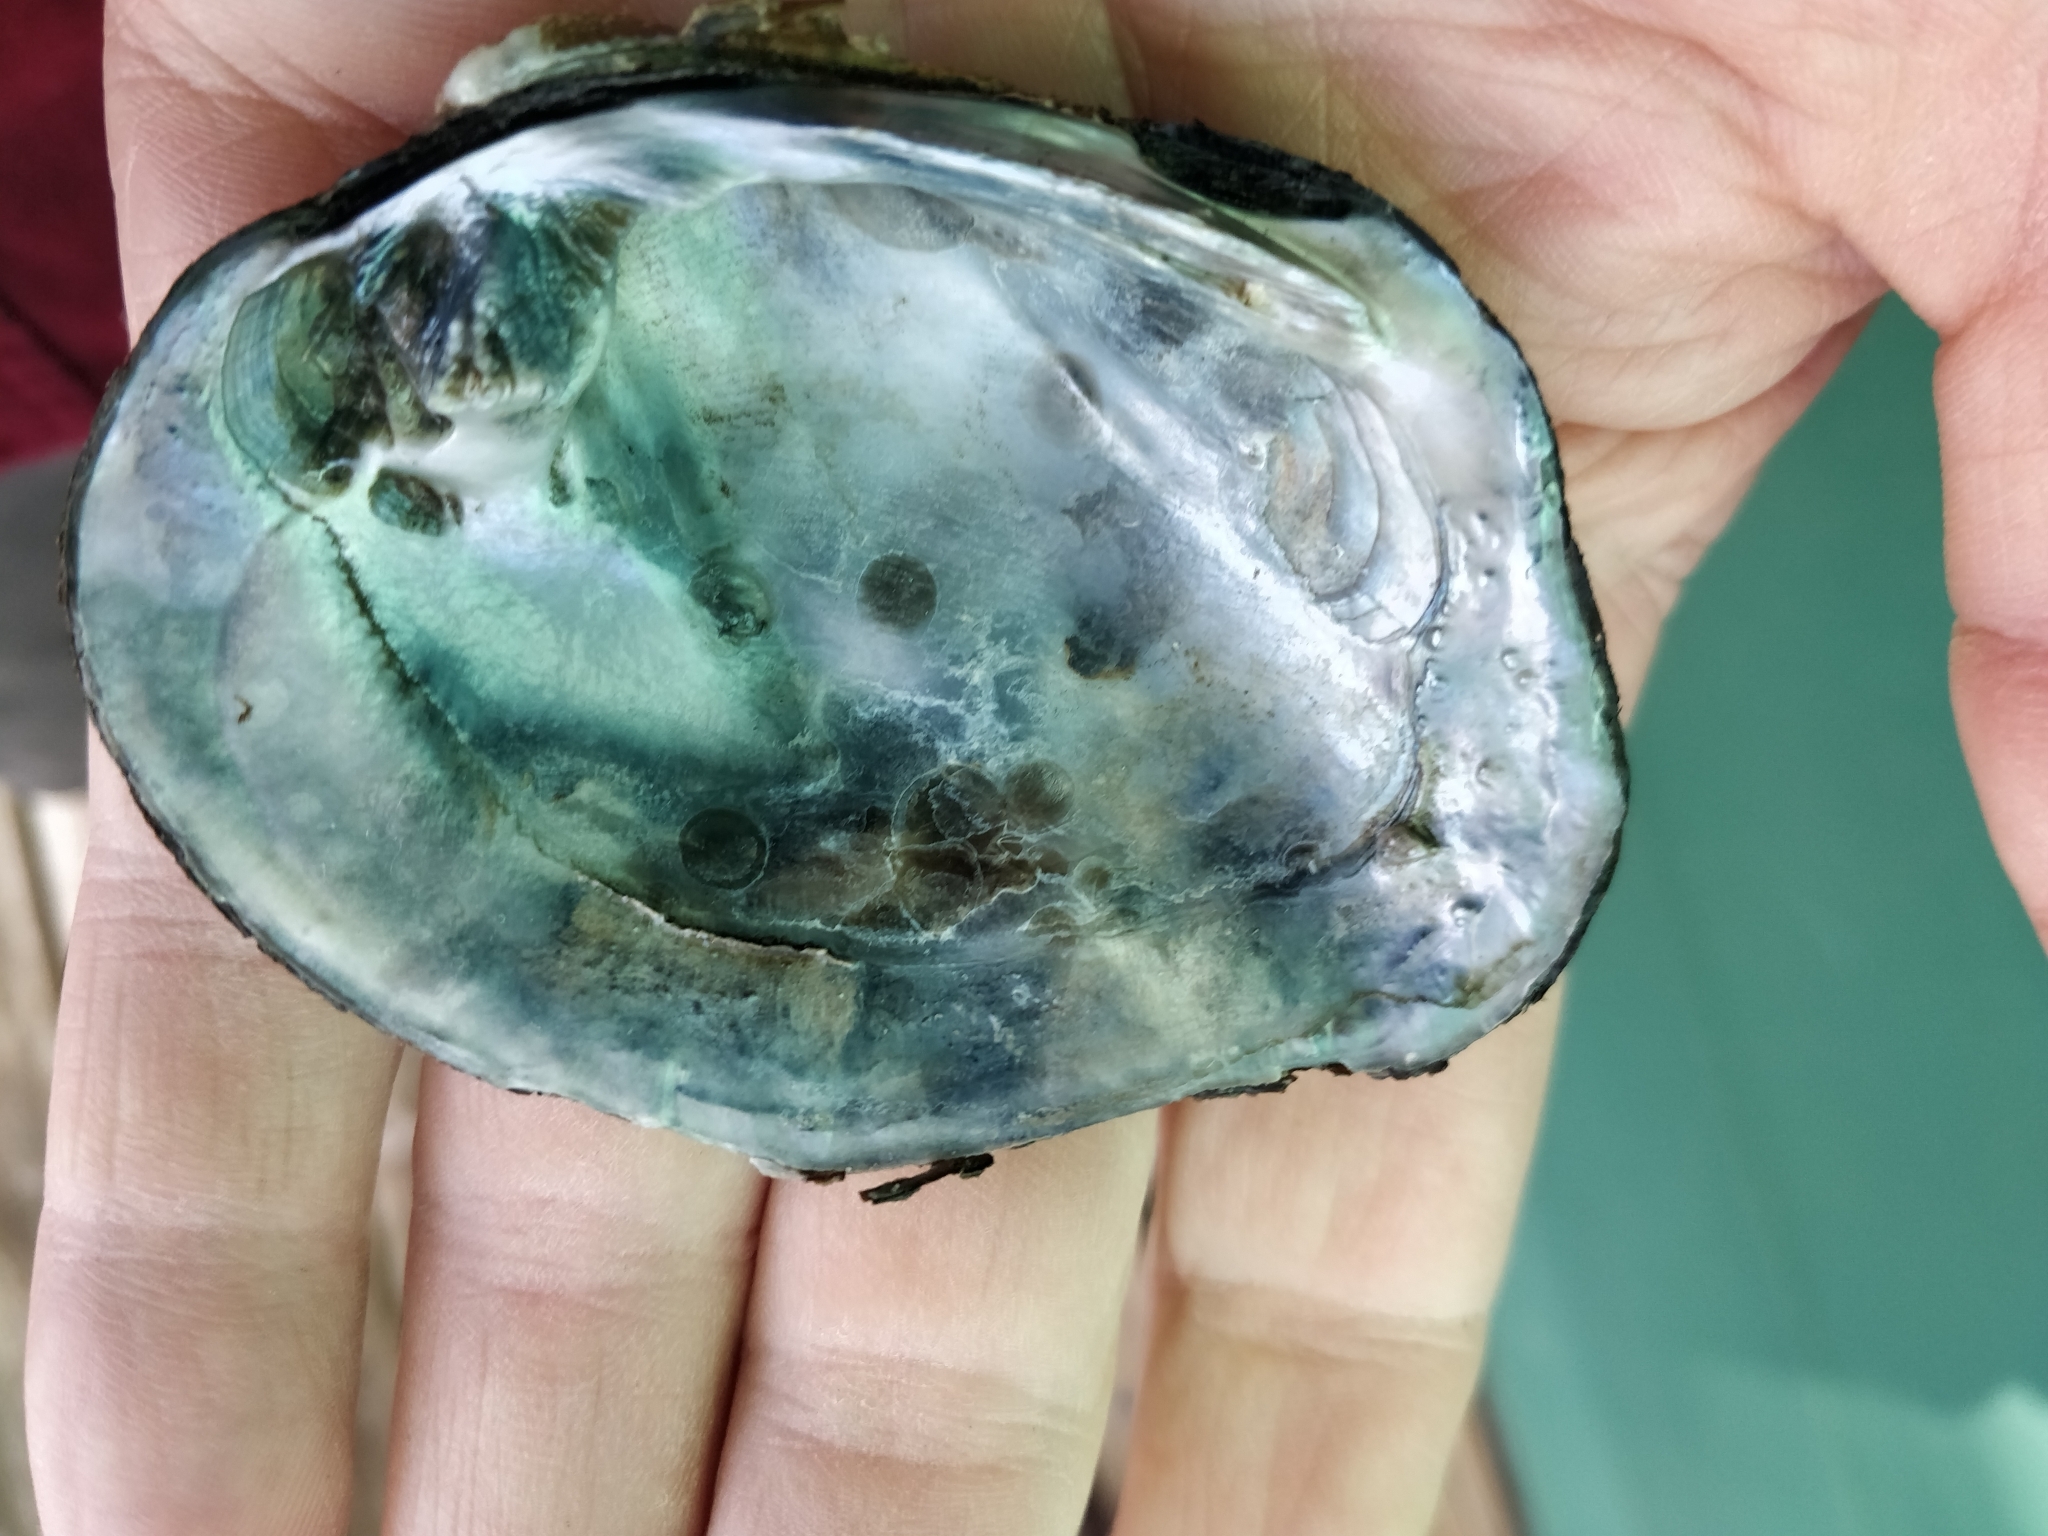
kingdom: Animalia
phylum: Mollusca
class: Bivalvia
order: Unionida
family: Unionidae
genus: Quadrula
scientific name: Quadrula quadrula
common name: Mapleleaf
